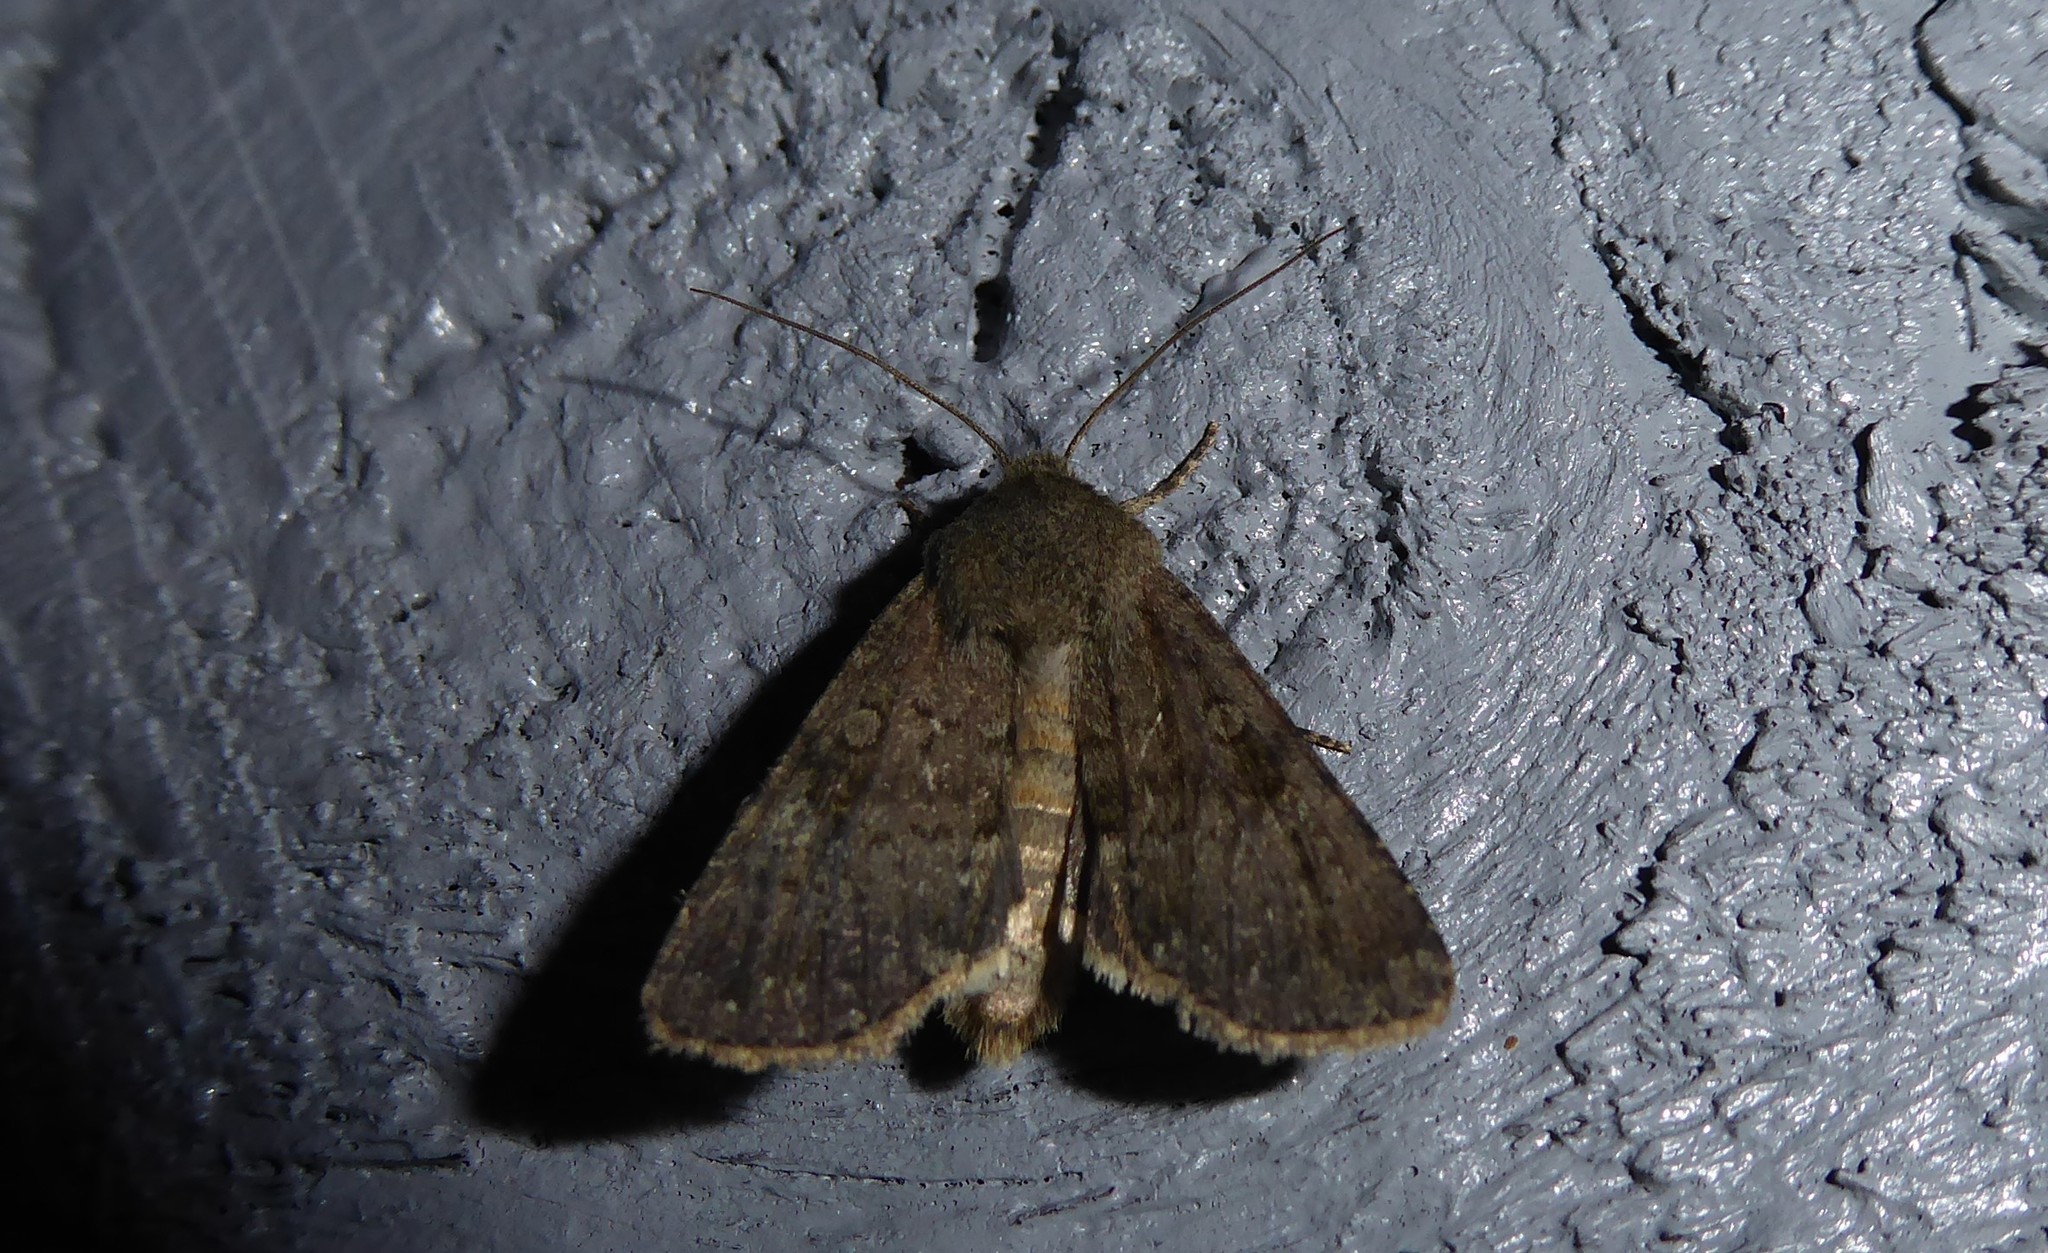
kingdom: Animalia
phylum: Arthropoda
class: Insecta
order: Lepidoptera
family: Noctuidae
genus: Ichneutica
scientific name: Ichneutica moderata
